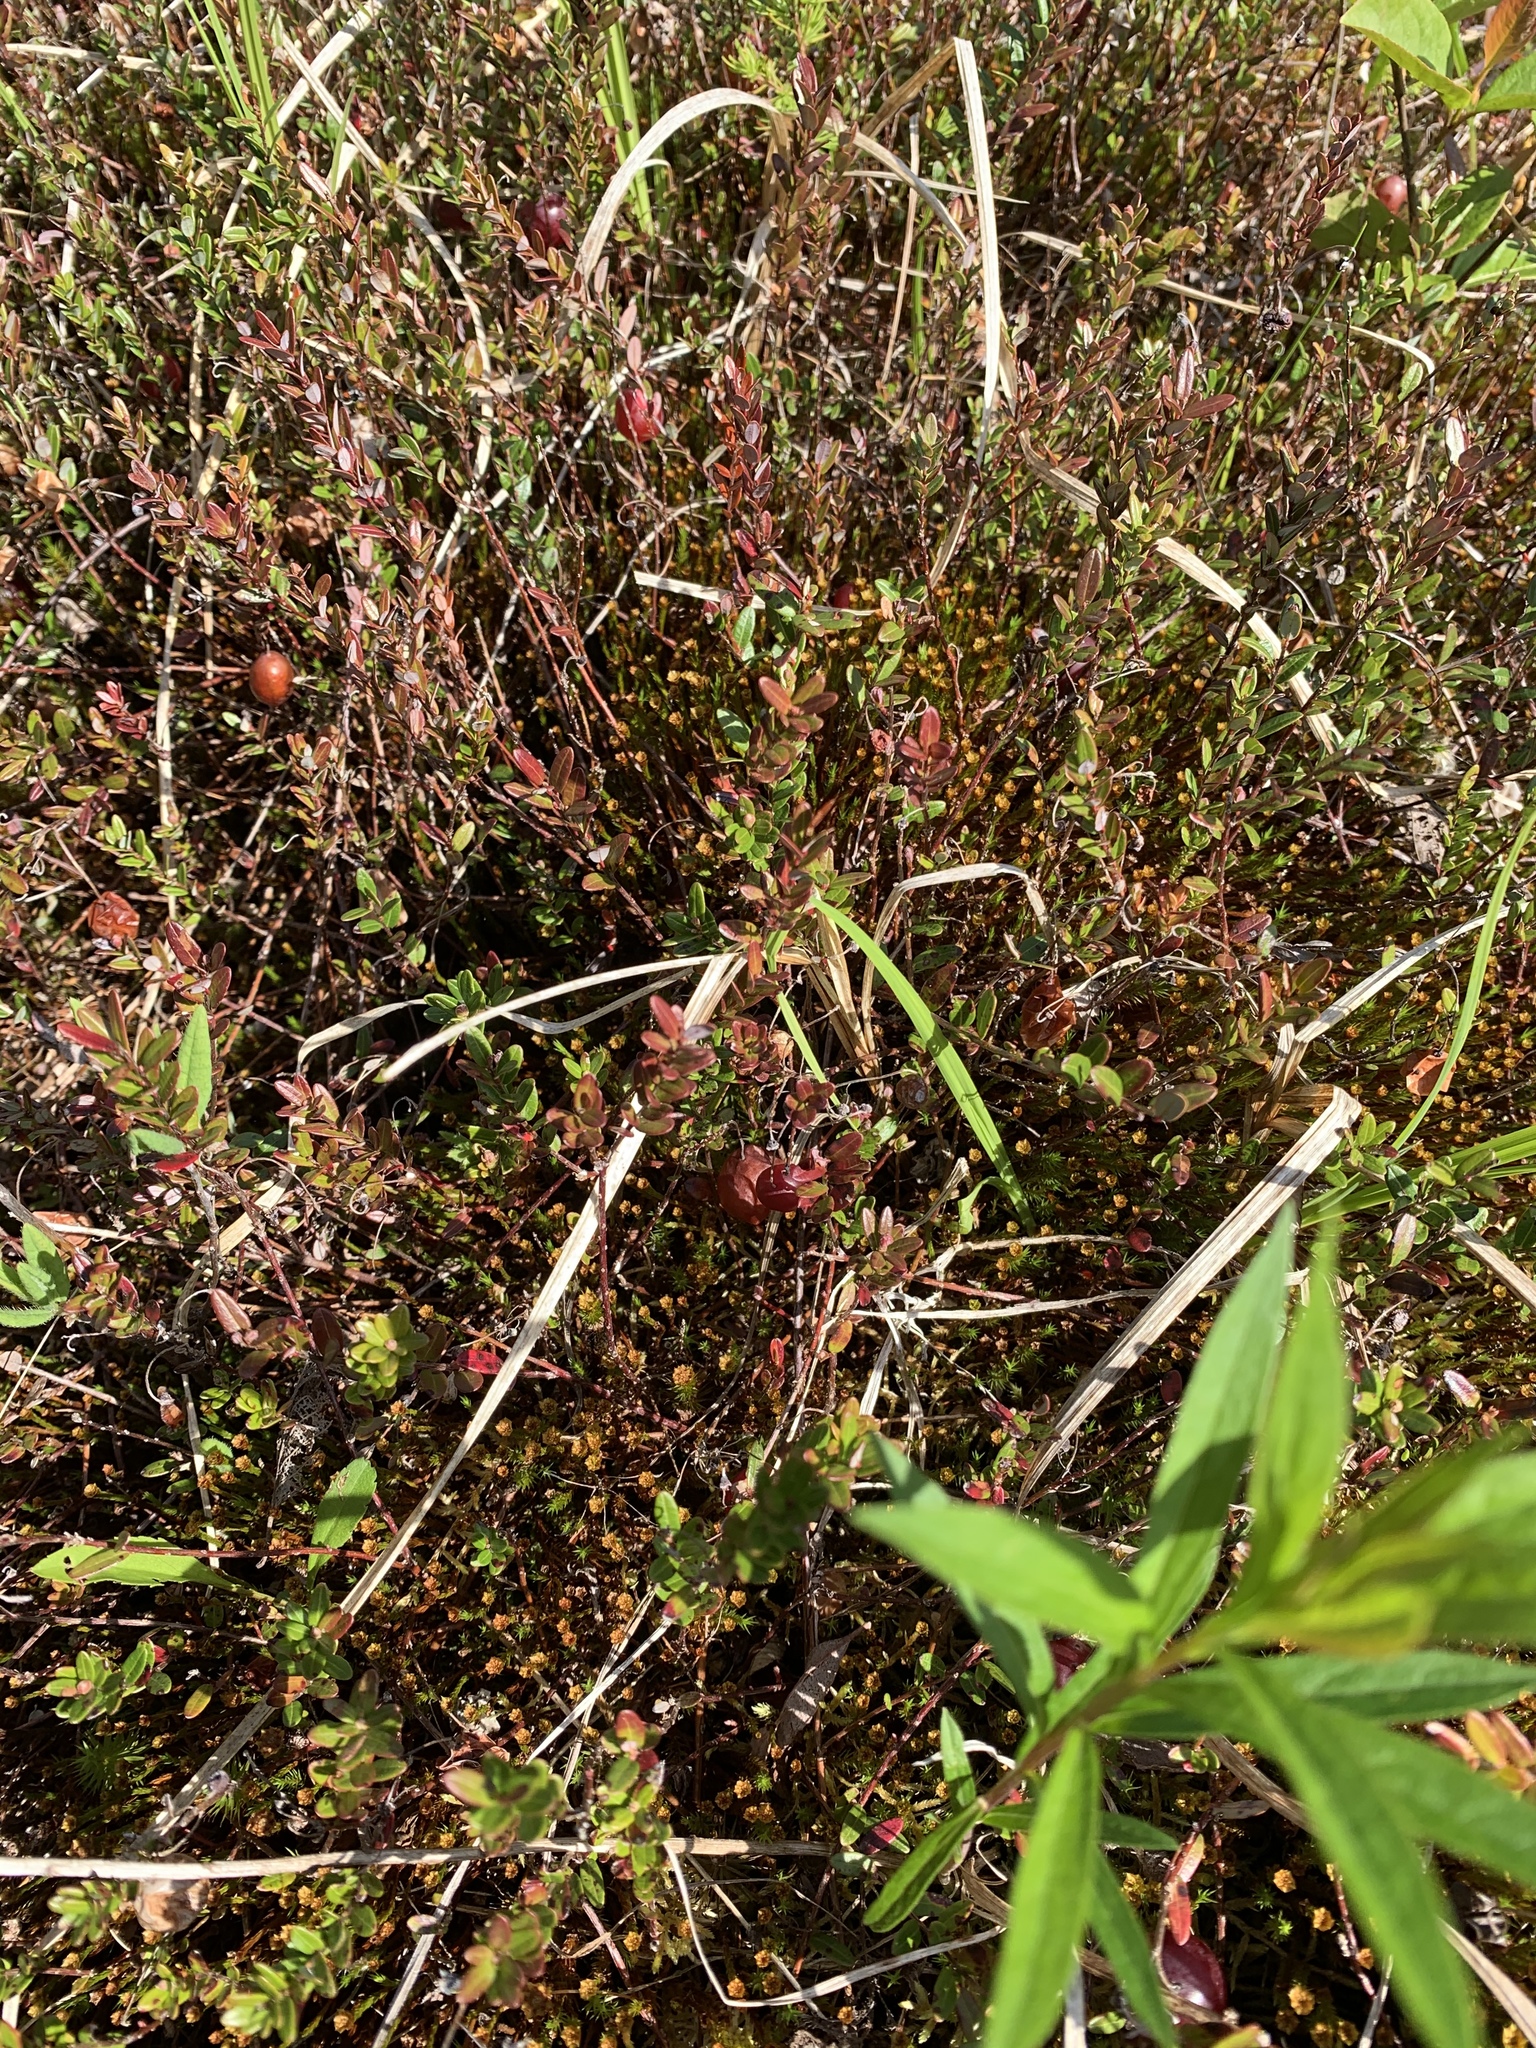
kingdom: Plantae
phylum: Tracheophyta
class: Magnoliopsida
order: Ericales
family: Ericaceae
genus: Vaccinium
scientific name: Vaccinium macrocarpon
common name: American cranberry
